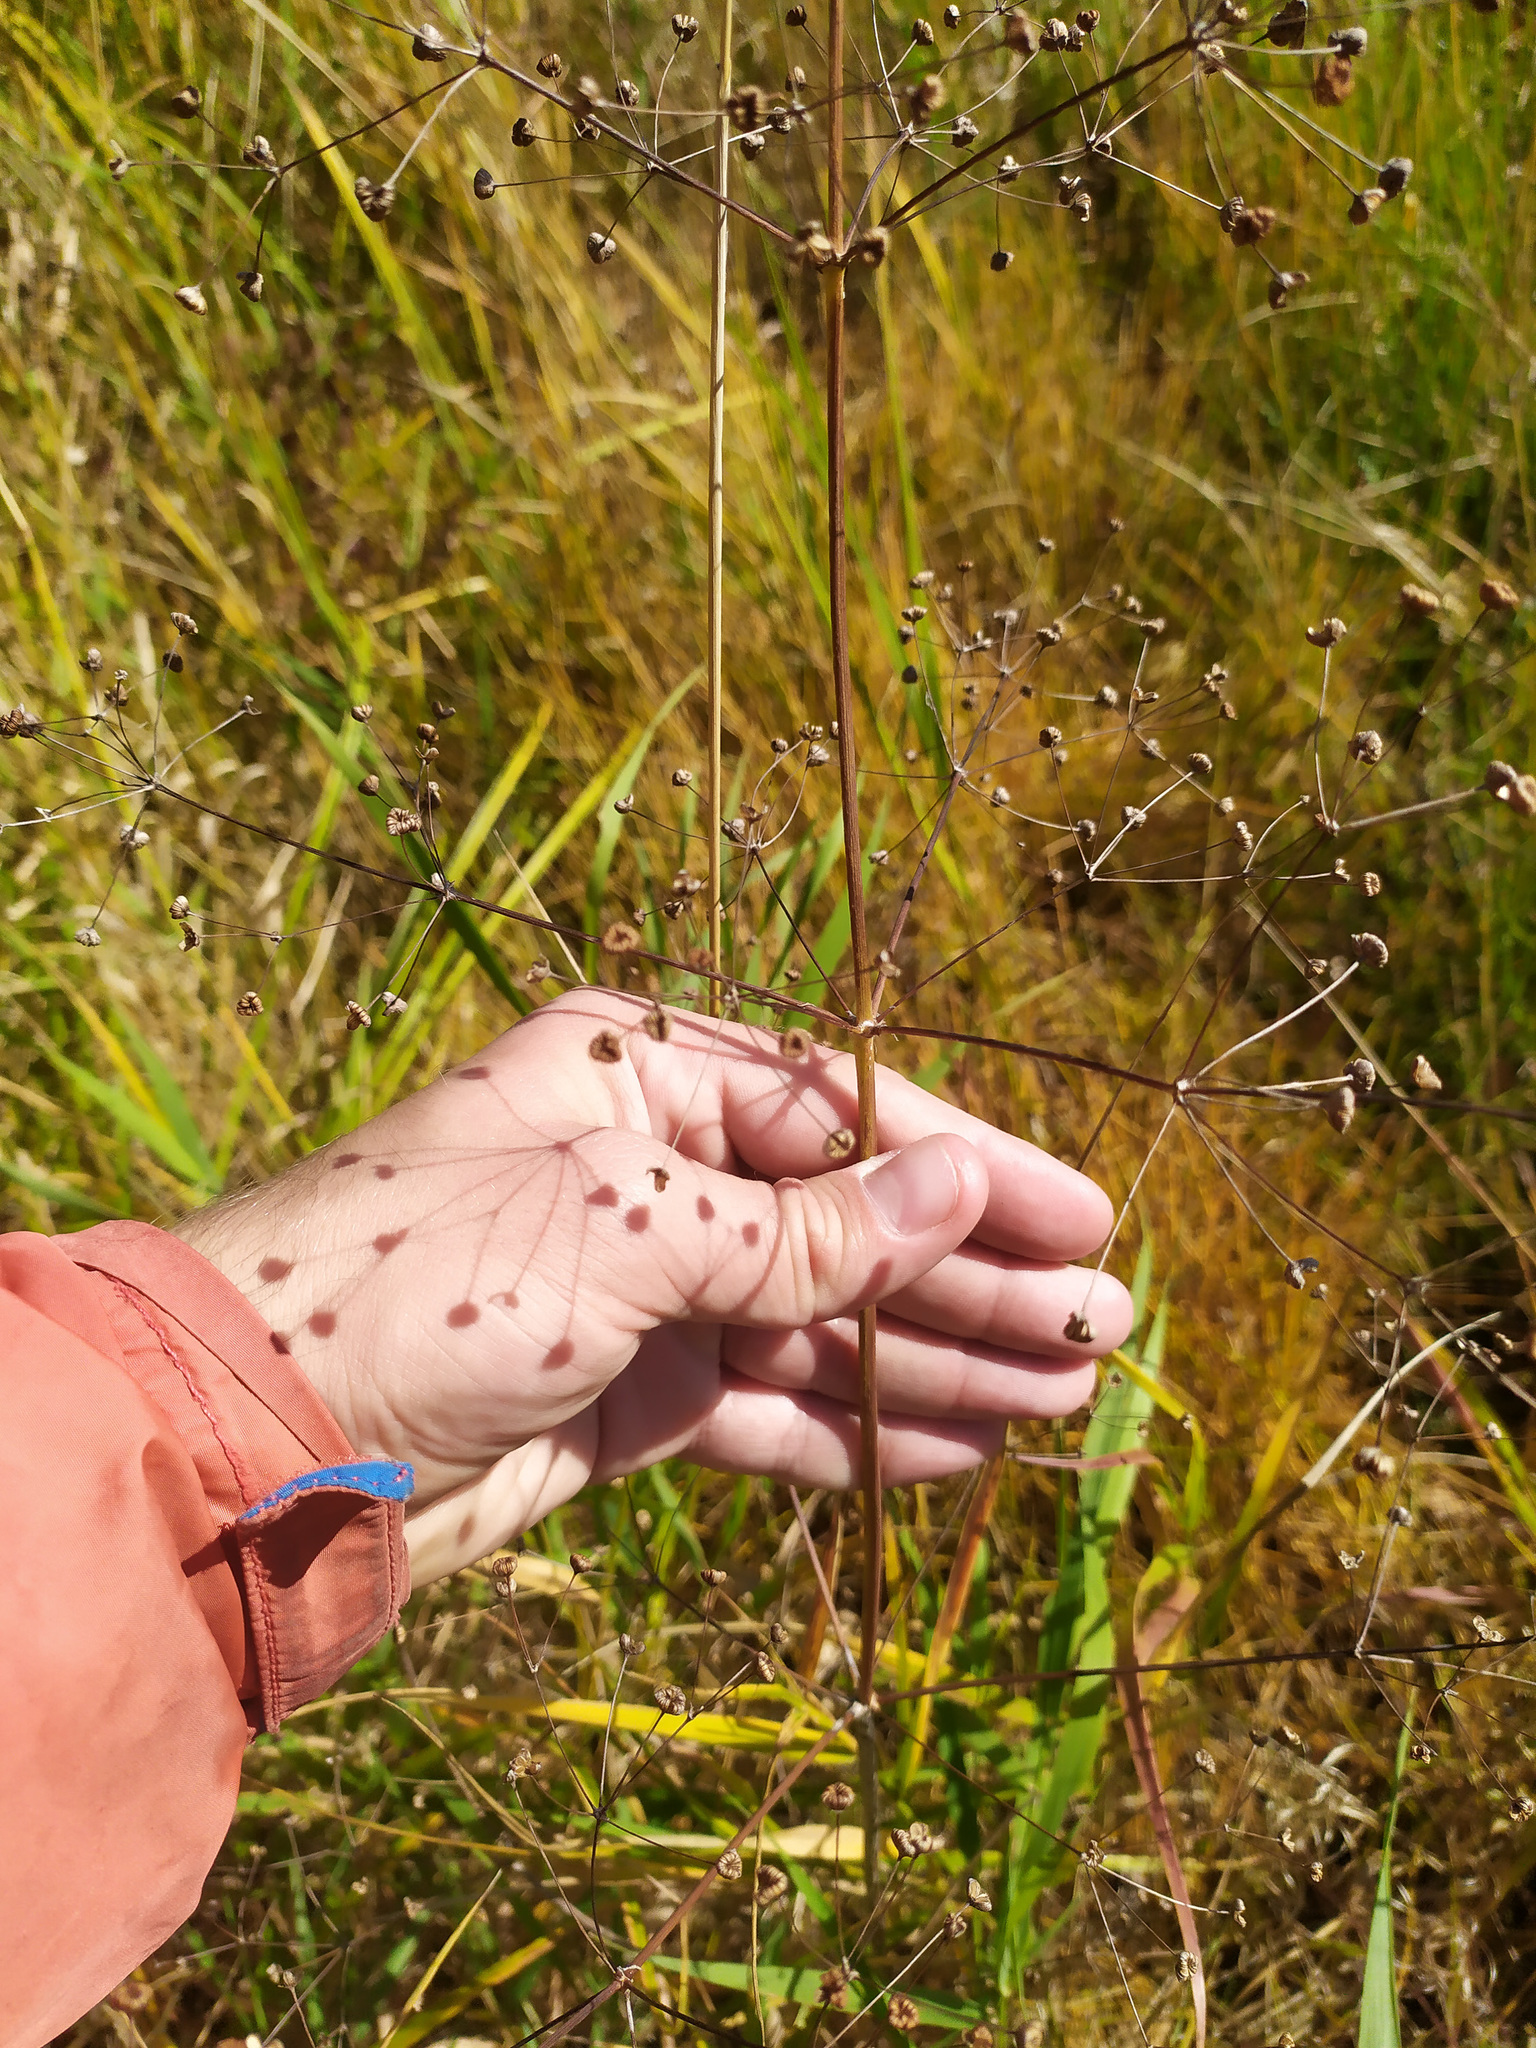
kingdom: Plantae
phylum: Tracheophyta
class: Liliopsida
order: Alismatales
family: Alismataceae
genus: Alisma
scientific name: Alisma plantago-aquatica
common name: Water-plantain
